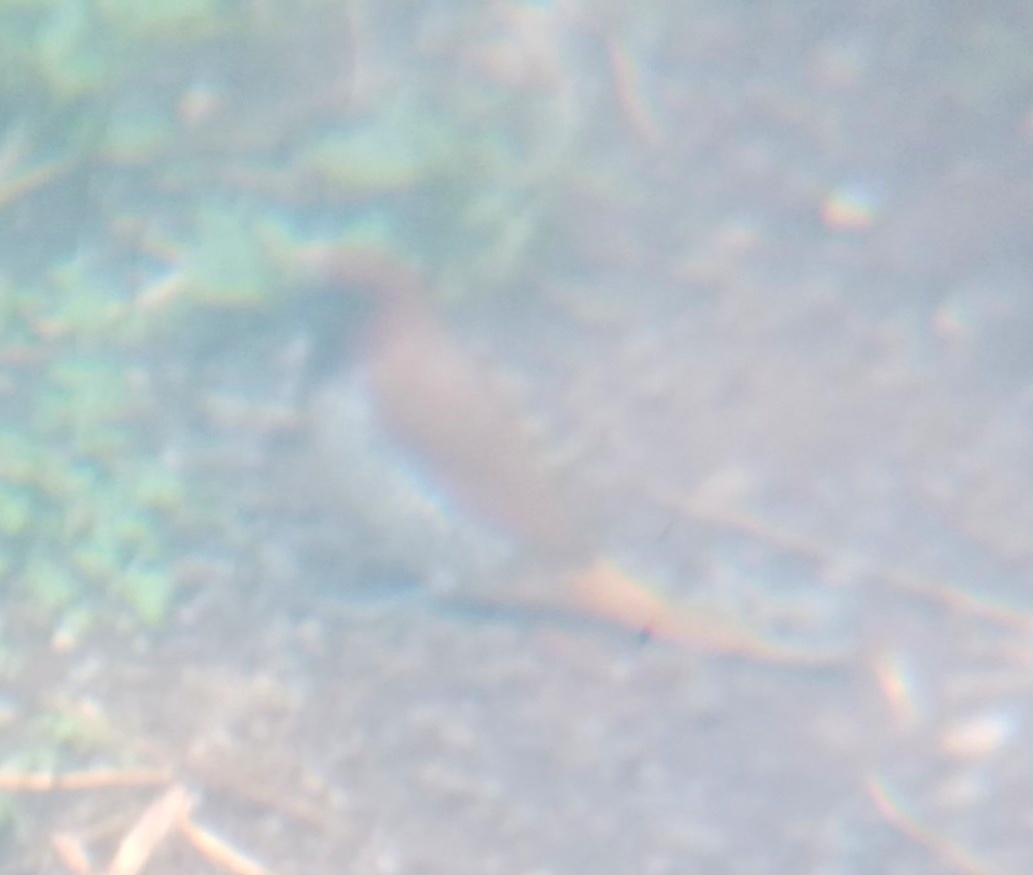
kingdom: Animalia
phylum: Chordata
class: Aves
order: Passeriformes
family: Estrildidae
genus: Lonchura
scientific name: Lonchura punctulata
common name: Scaly-breasted munia
